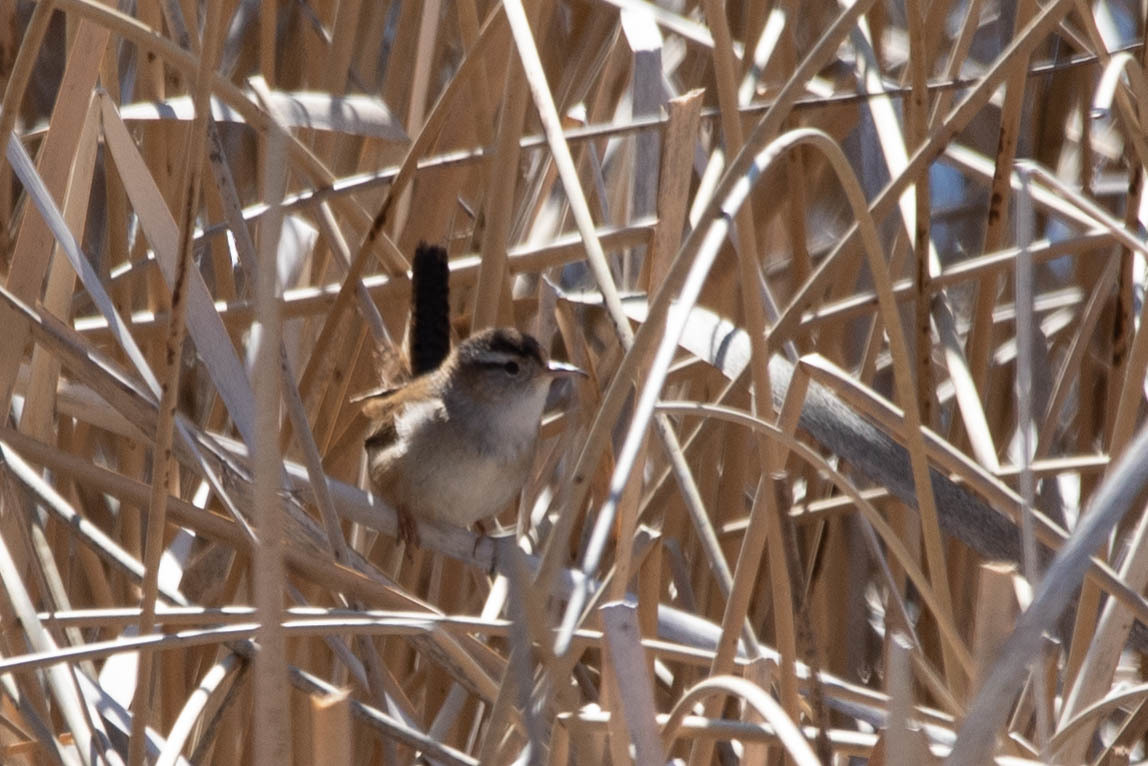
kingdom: Animalia
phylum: Chordata
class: Aves
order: Passeriformes
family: Troglodytidae
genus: Cistothorus
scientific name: Cistothorus palustris
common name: Marsh wren
